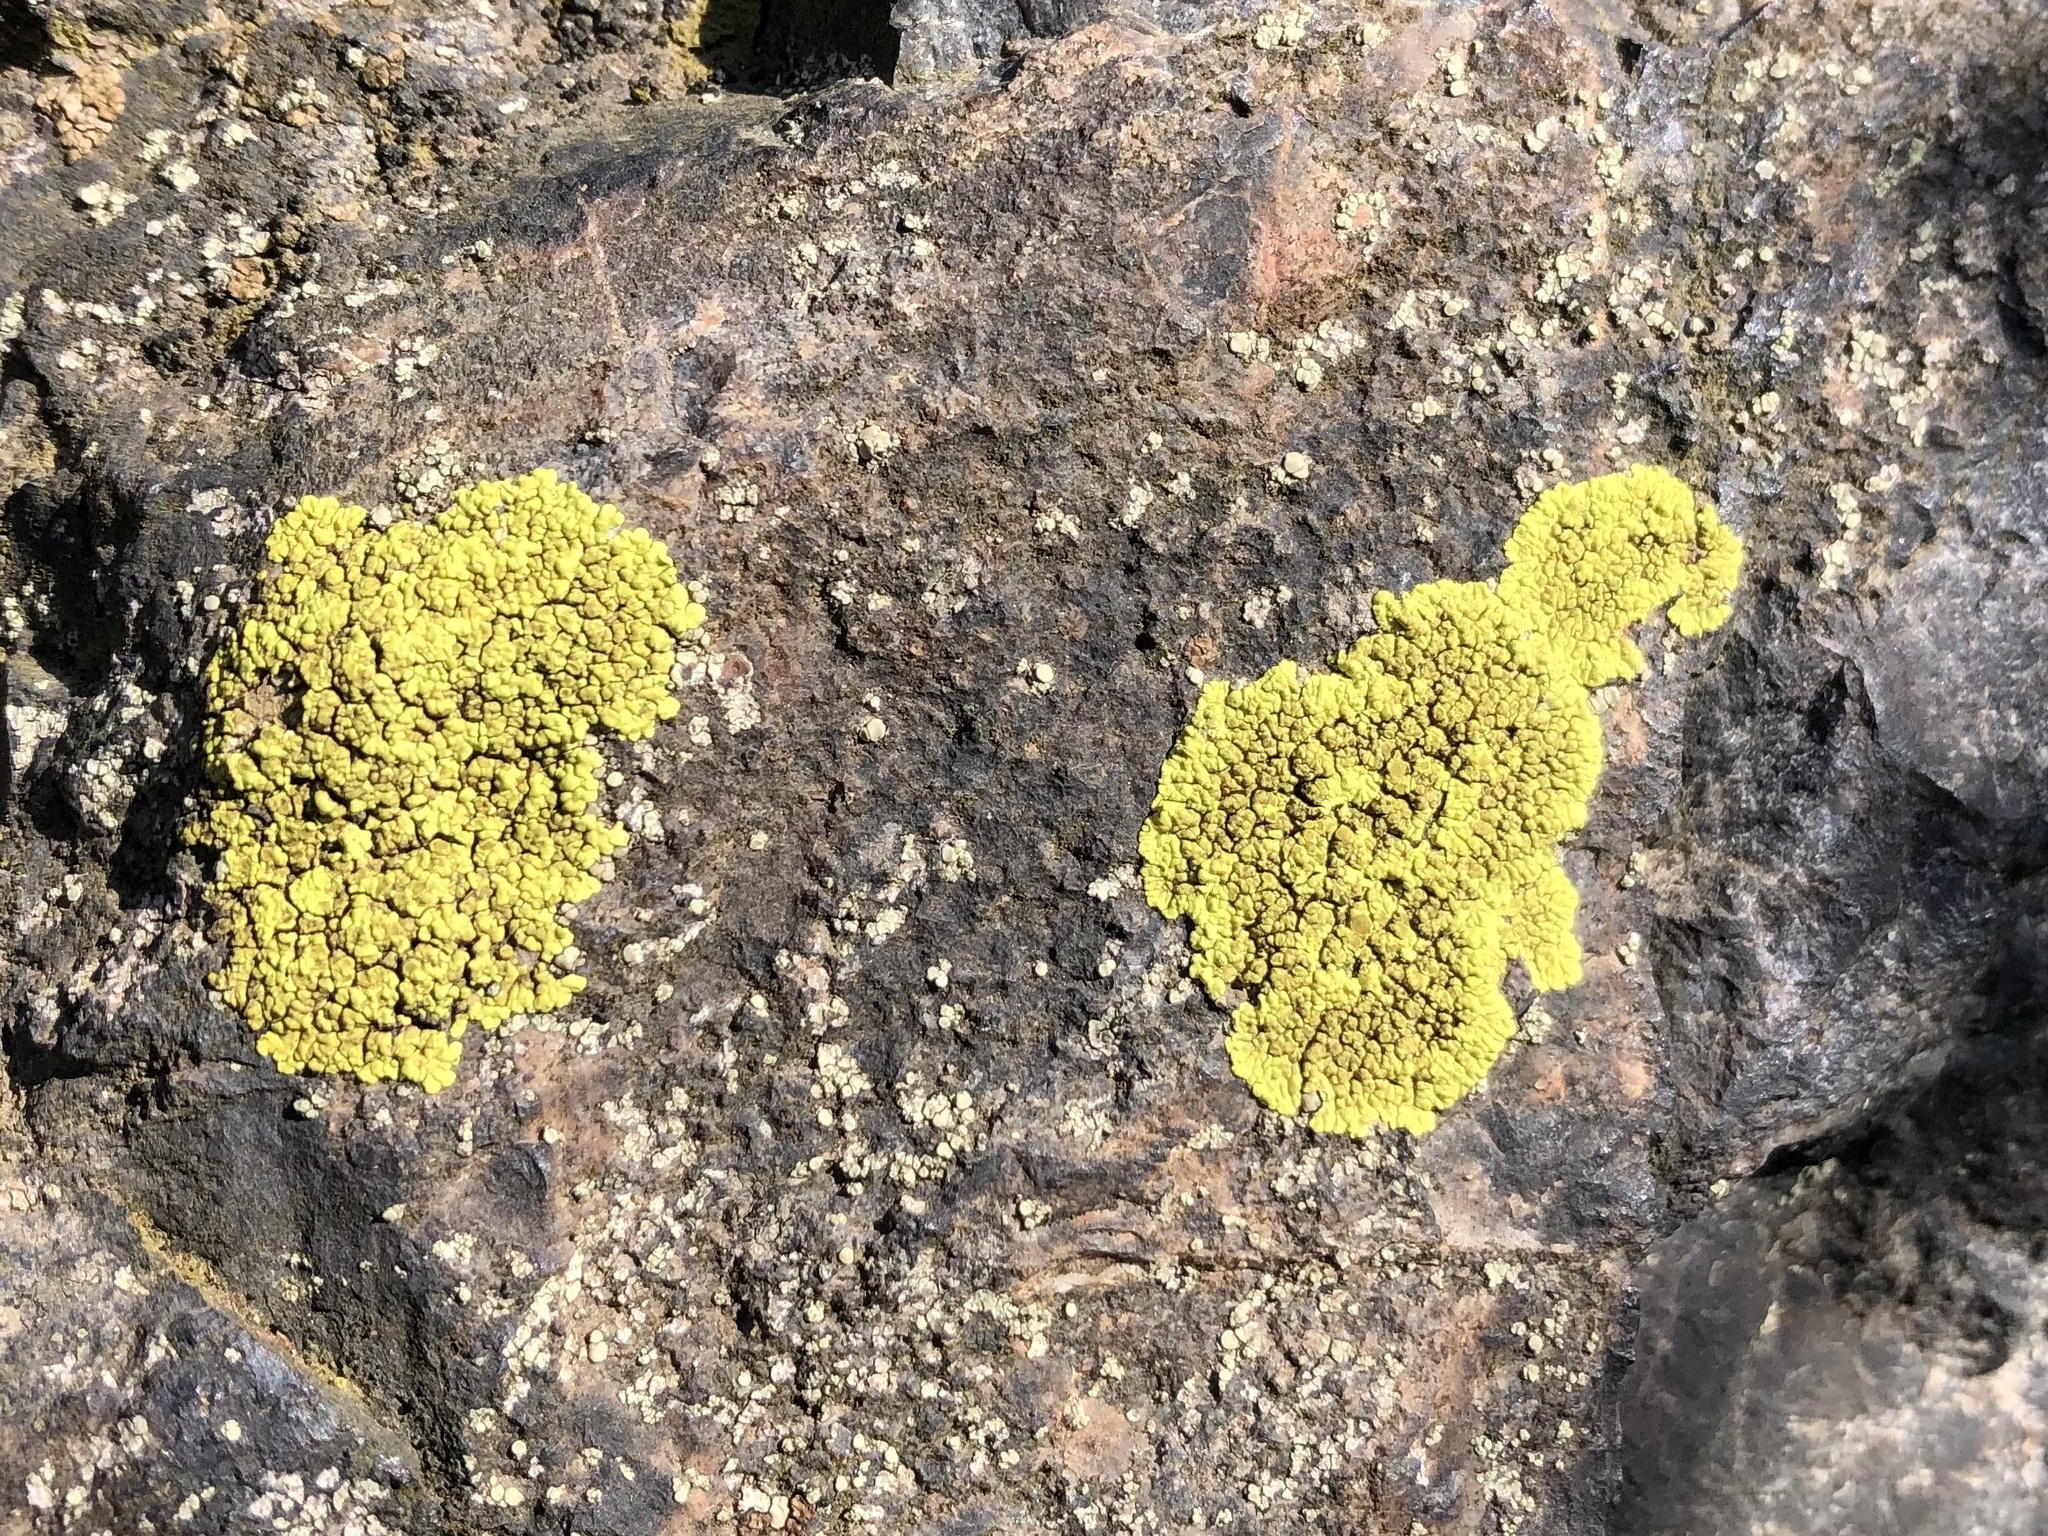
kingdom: Fungi
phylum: Ascomycota
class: Lecanoromycetes
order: Acarosporales
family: Acarosporaceae
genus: Pleopsidium
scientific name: Pleopsidium oxytonum
